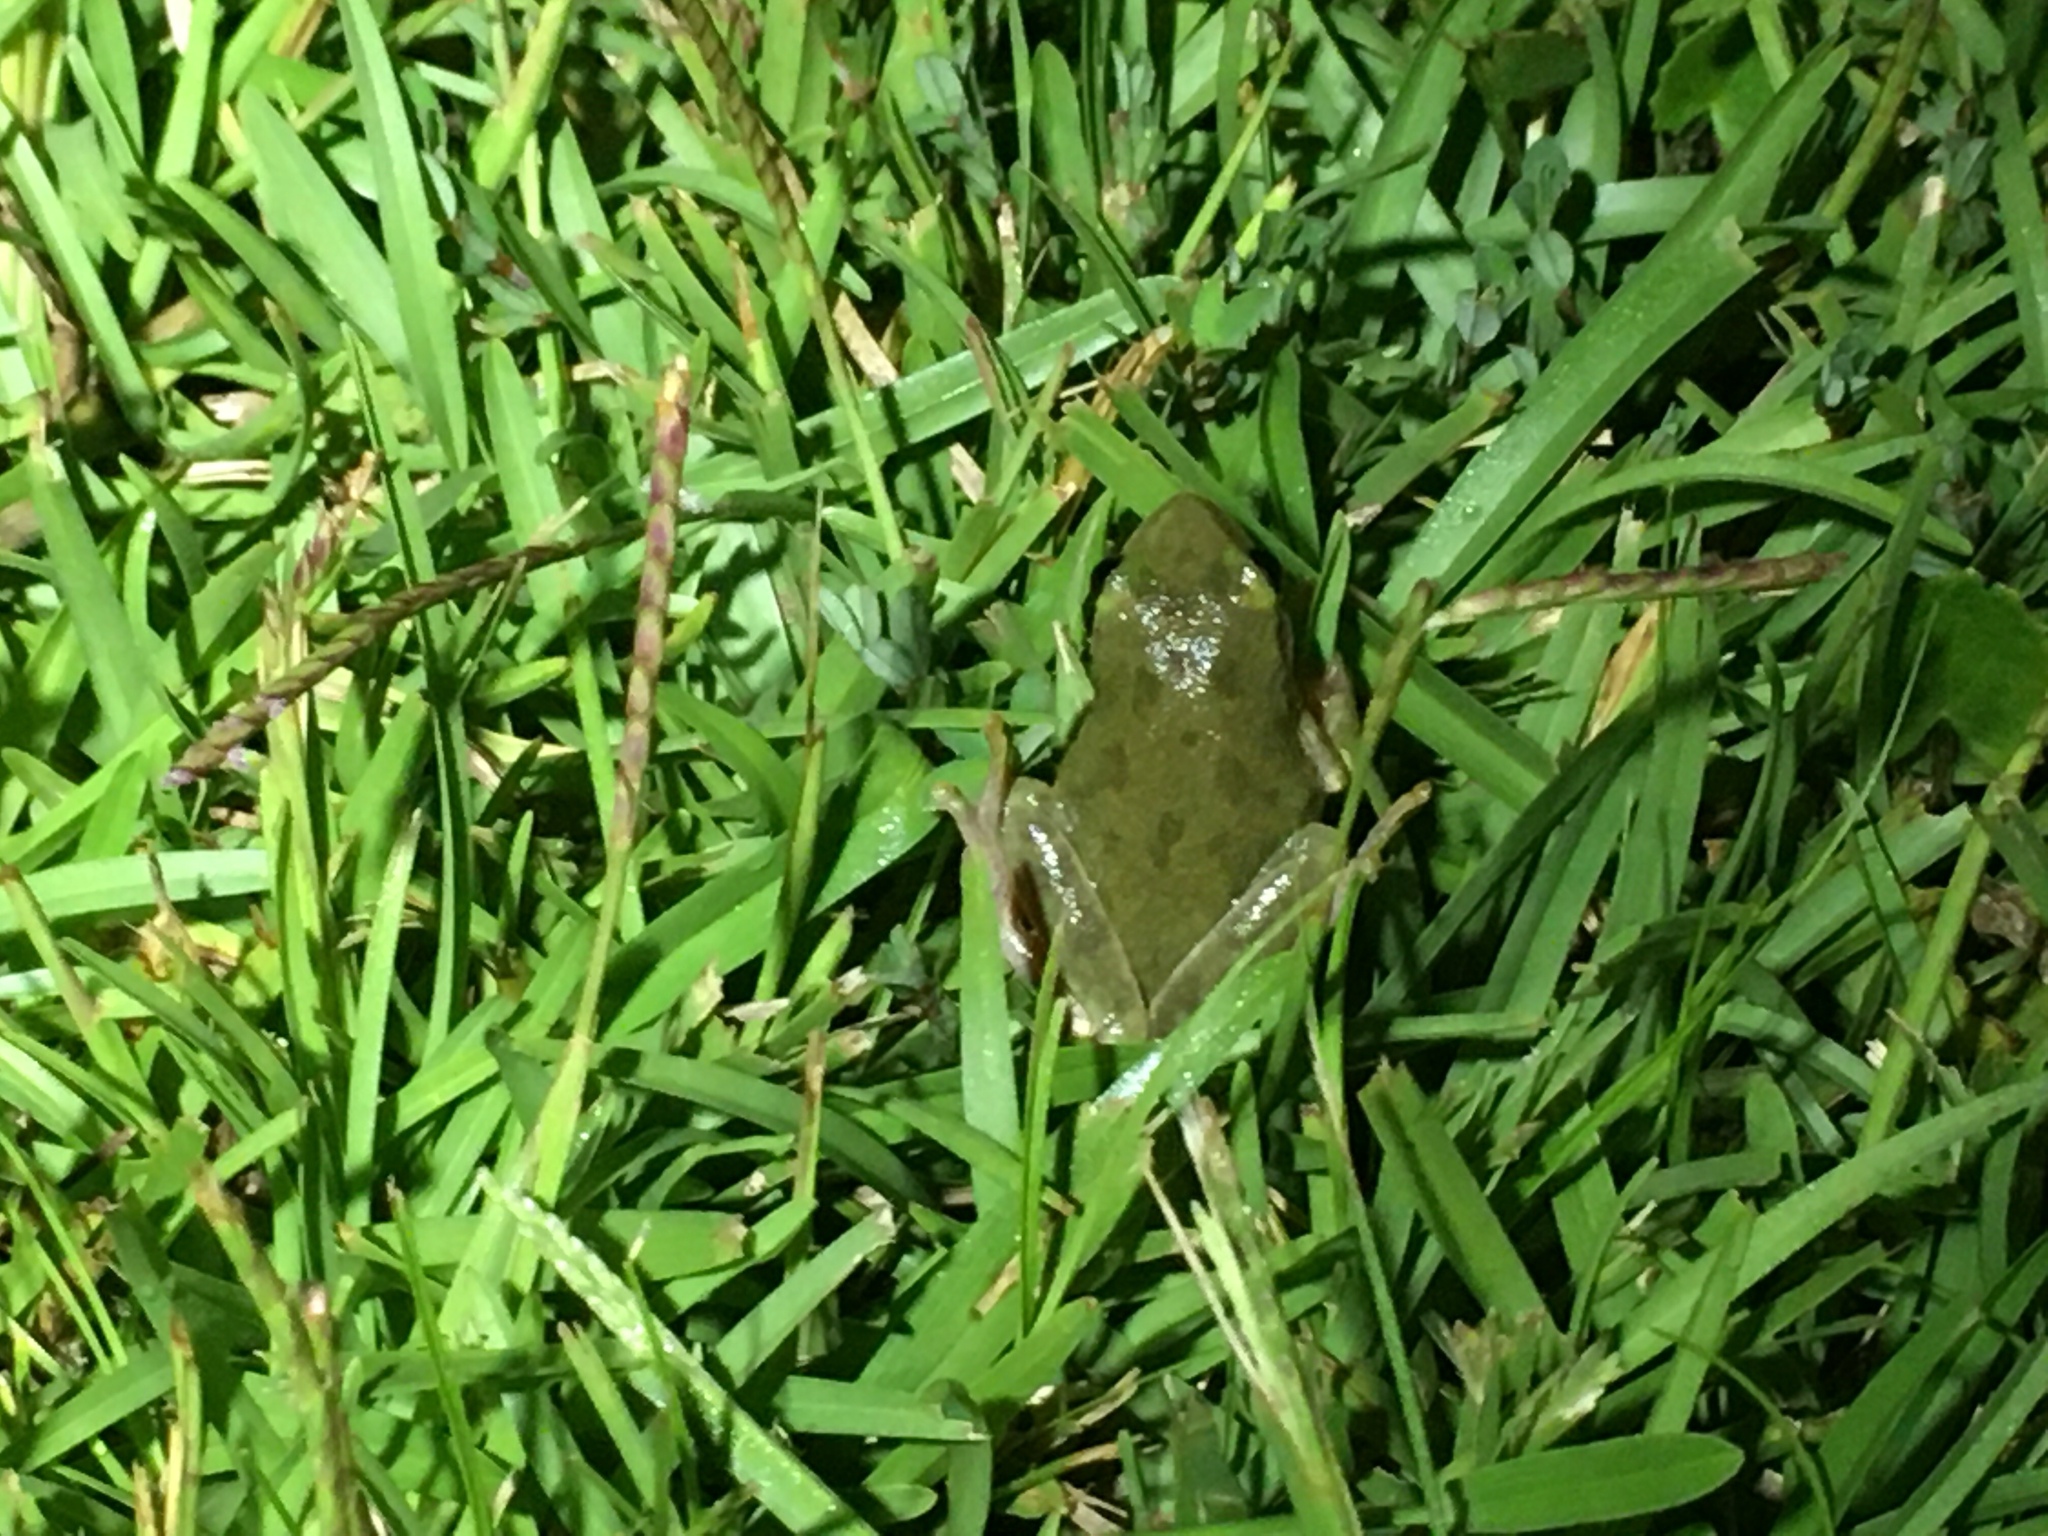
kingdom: Animalia
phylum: Chordata
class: Amphibia
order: Anura
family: Hylidae
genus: Dryophytes
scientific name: Dryophytes squirellus
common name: Squirrel treefrog
